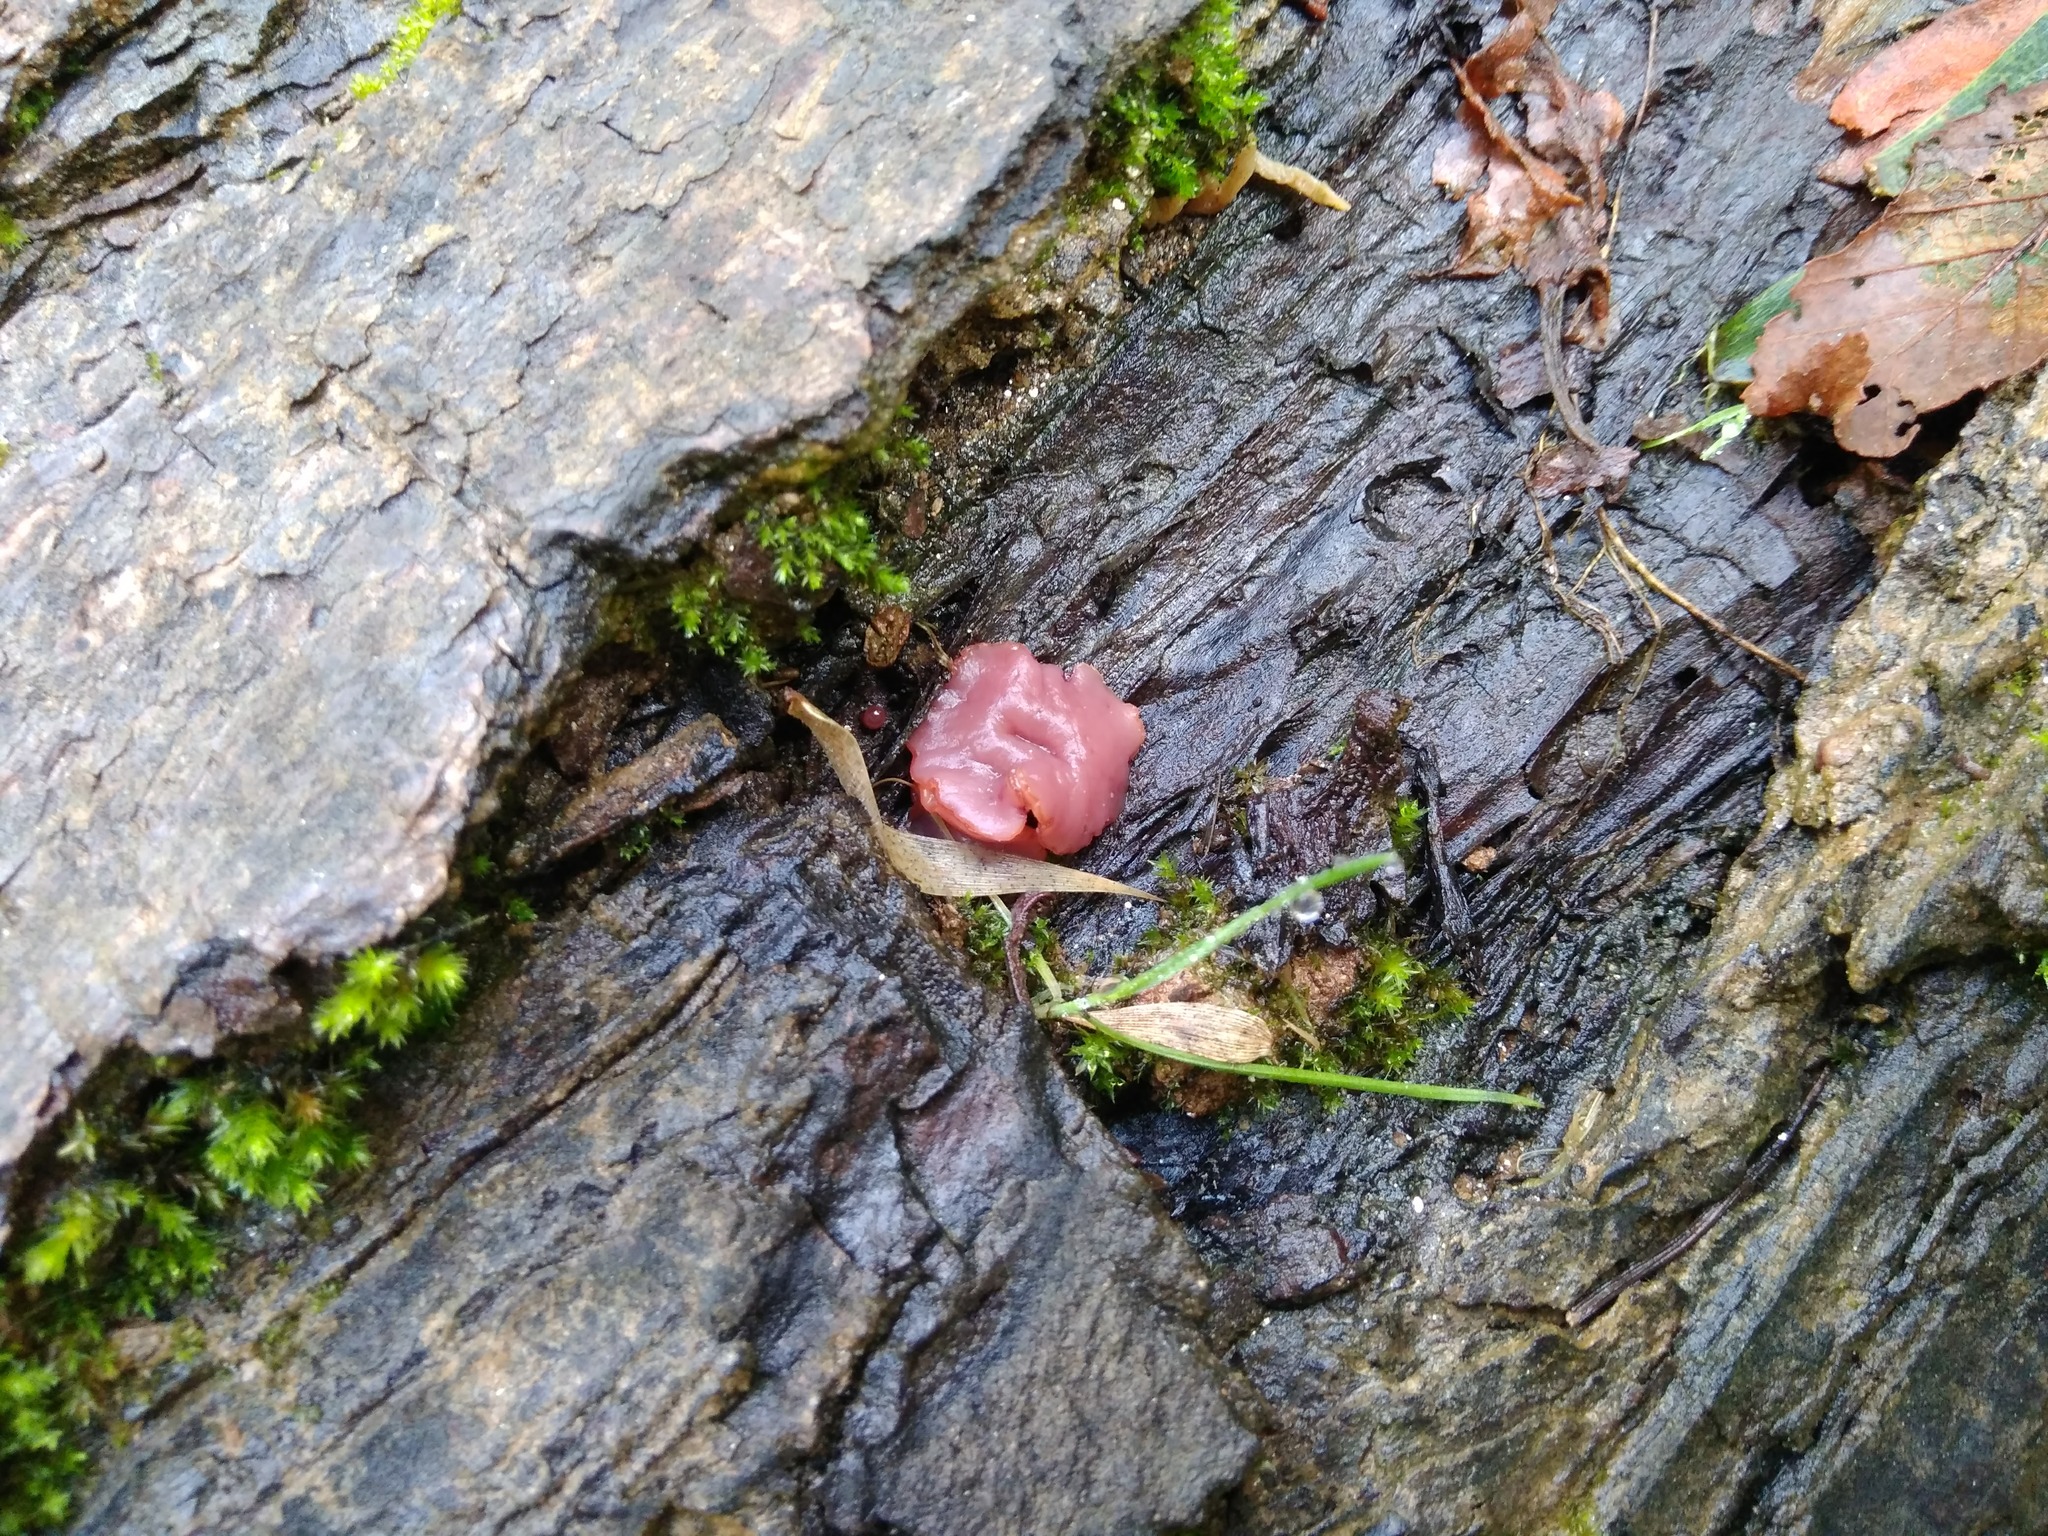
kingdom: Fungi
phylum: Ascomycota
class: Leotiomycetes
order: Helotiales
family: Gelatinodiscaceae
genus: Ascocoryne
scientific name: Ascocoryne sarcoides
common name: Purple jellydisc
